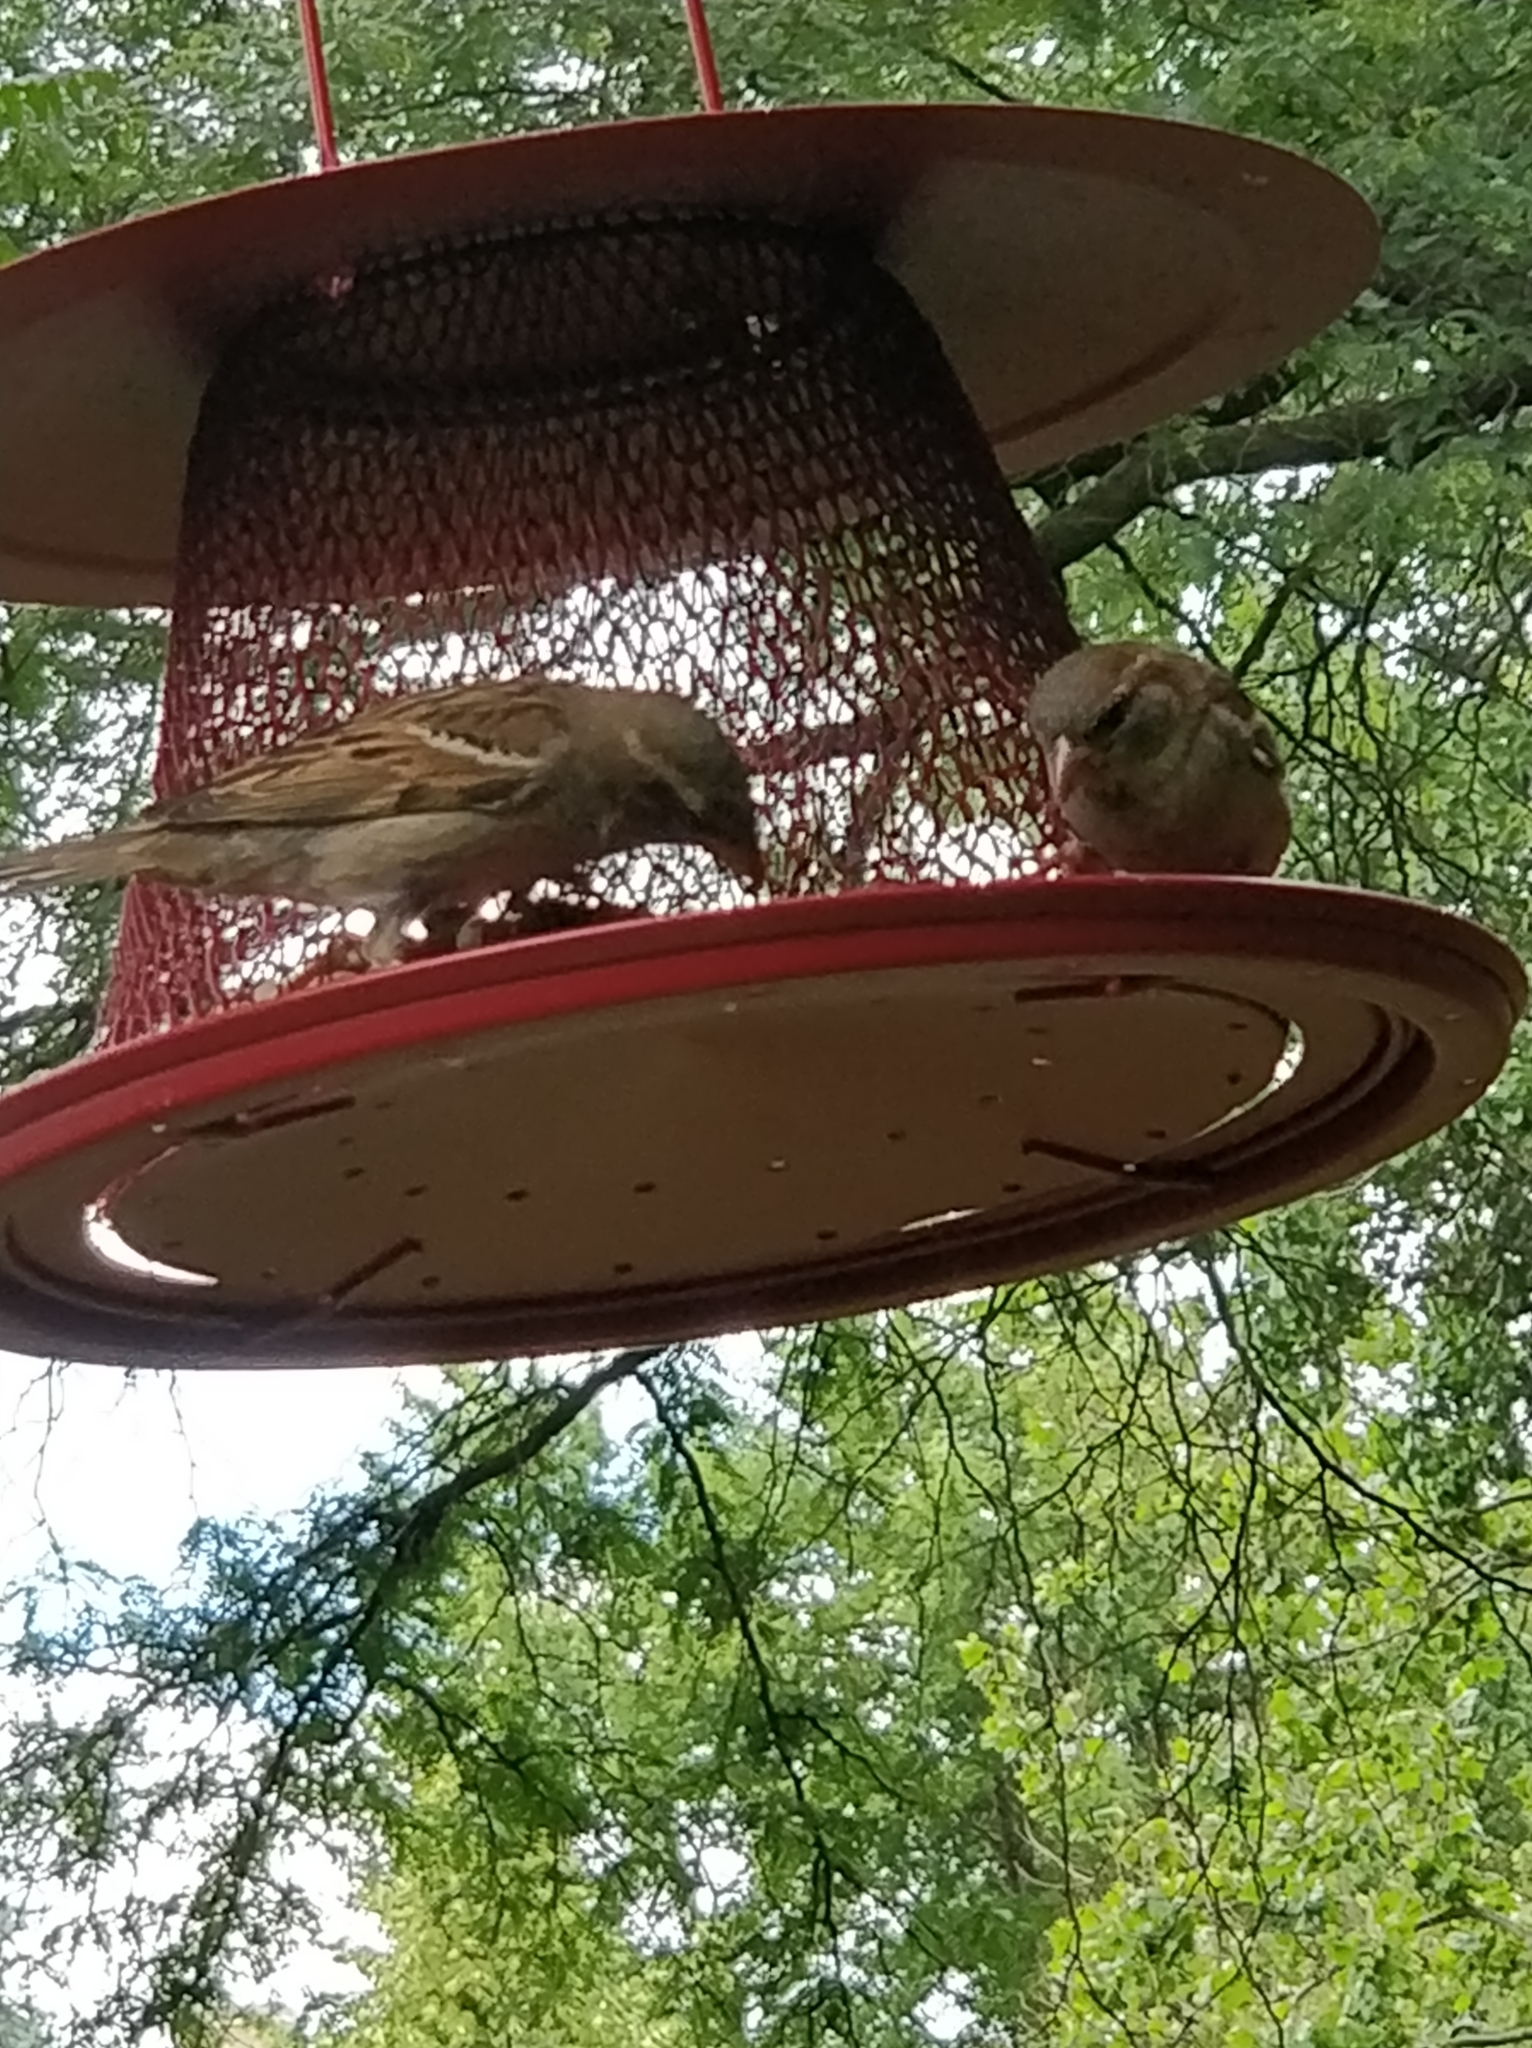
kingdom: Animalia
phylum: Chordata
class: Aves
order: Passeriformes
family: Passeridae
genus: Passer
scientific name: Passer domesticus
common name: House sparrow
